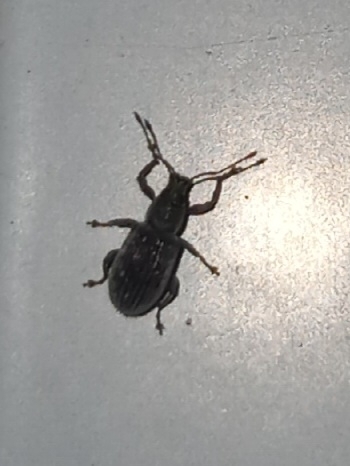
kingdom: Animalia
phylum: Arthropoda
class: Insecta
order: Coleoptera
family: Curculionidae
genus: Cyrtepistomus
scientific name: Cyrtepistomus castaneus
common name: Weevil
